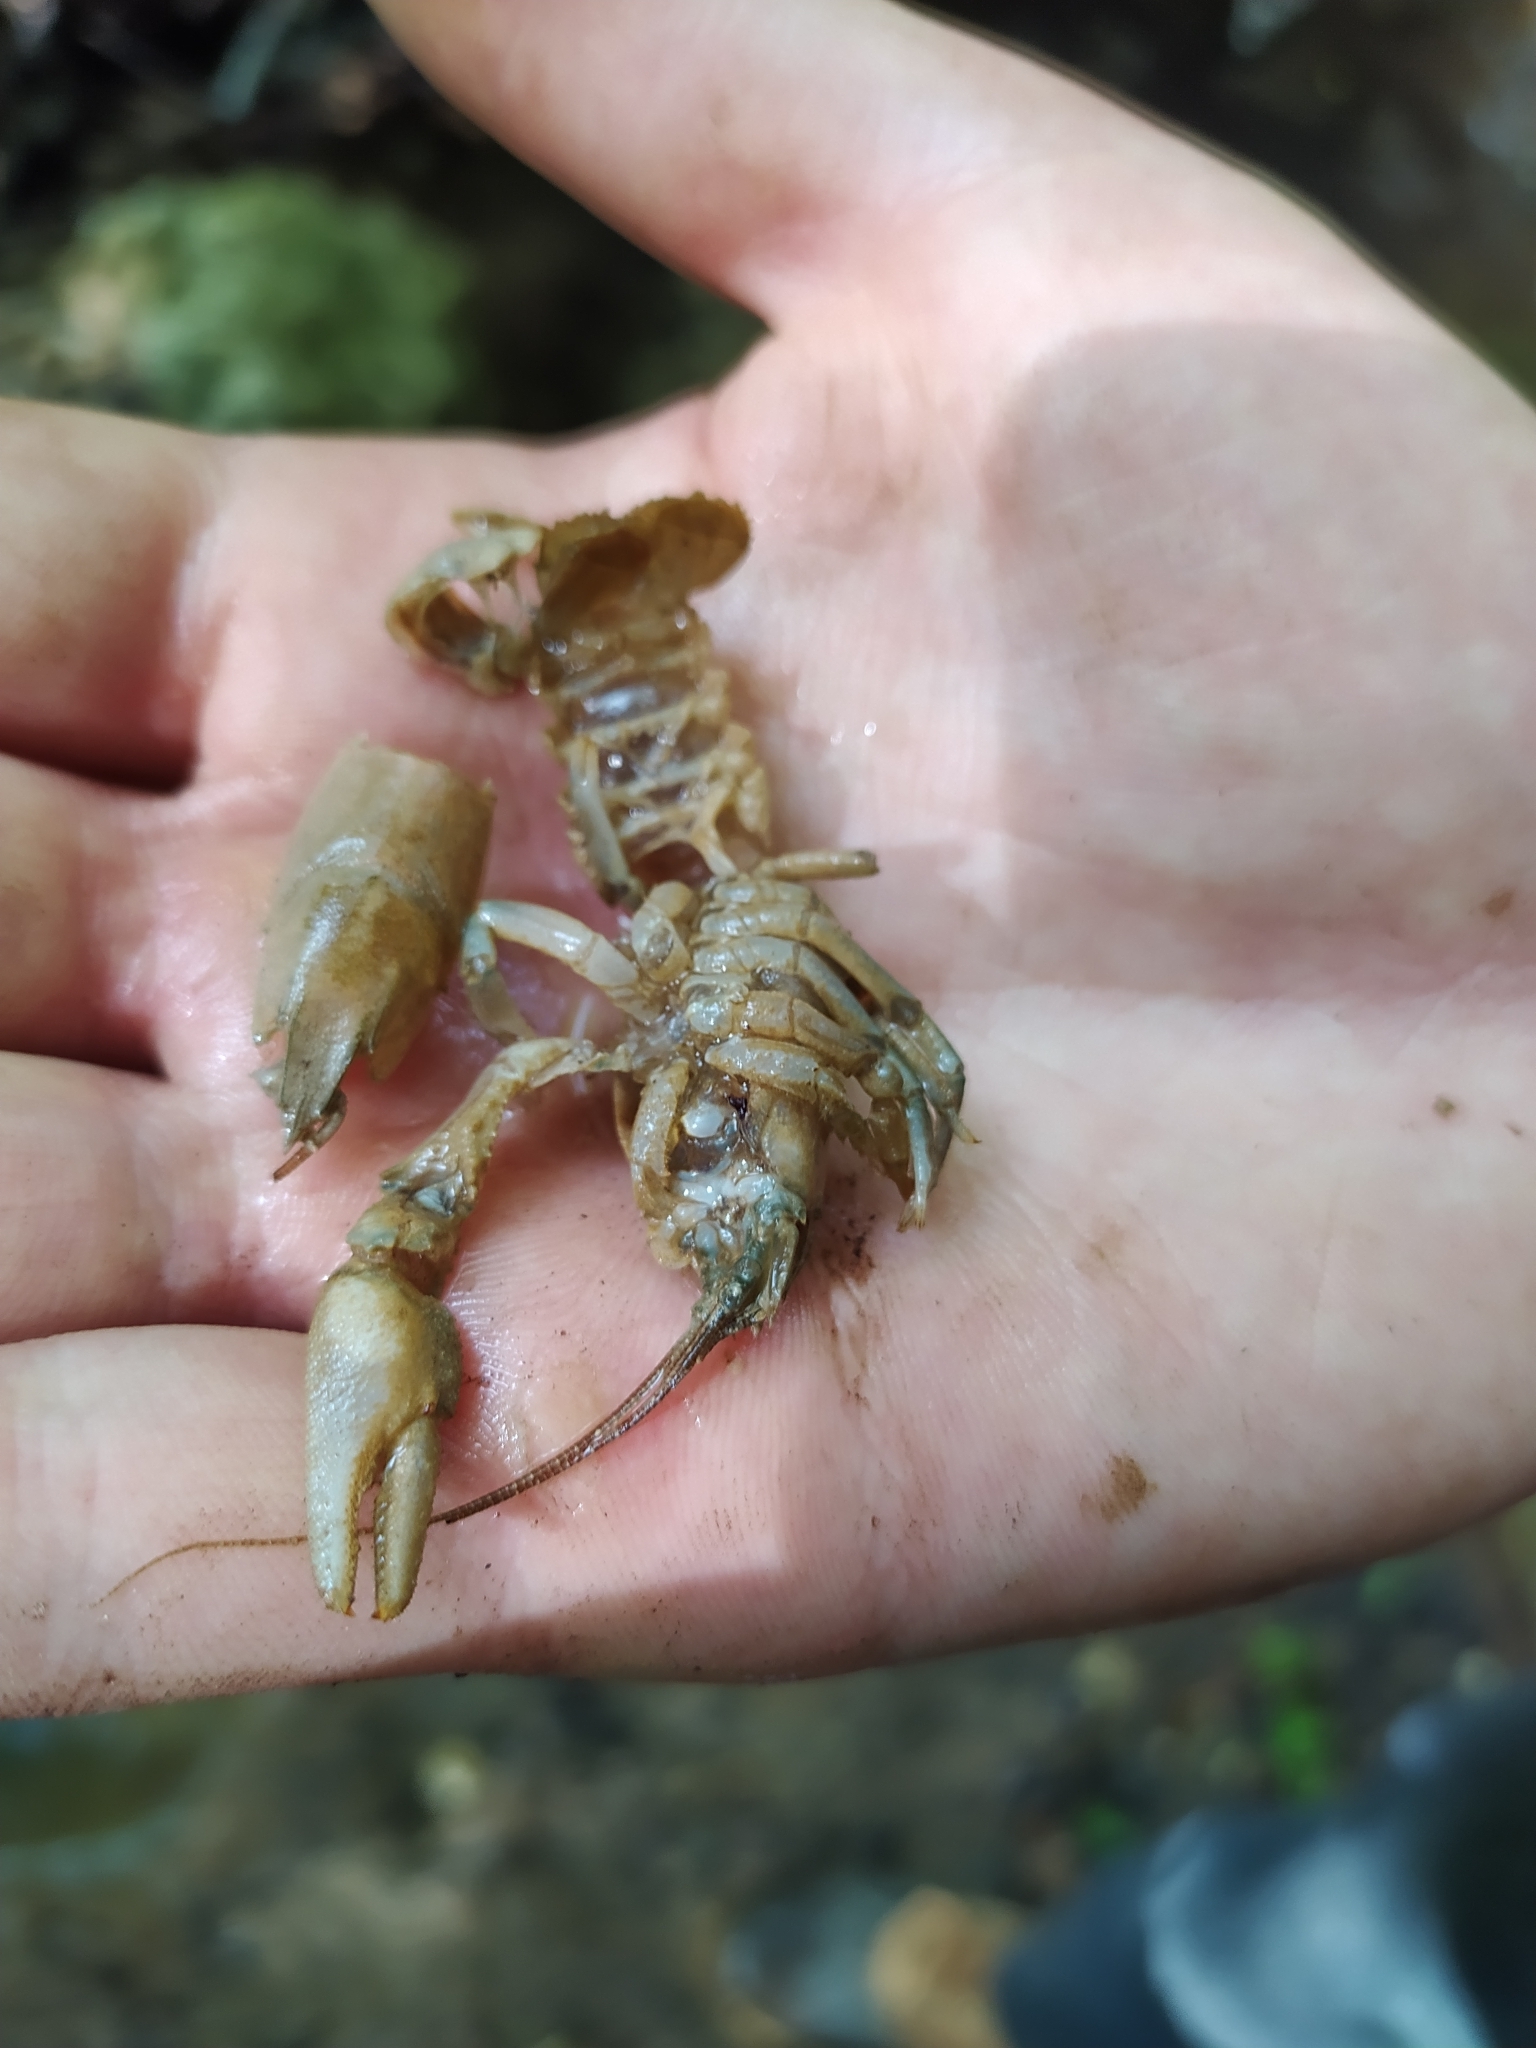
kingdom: Animalia
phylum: Arthropoda
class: Malacostraca
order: Decapoda
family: Astacidae
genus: Austropotamobius
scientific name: Austropotamobius pallipes
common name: White-clawed crayfish
